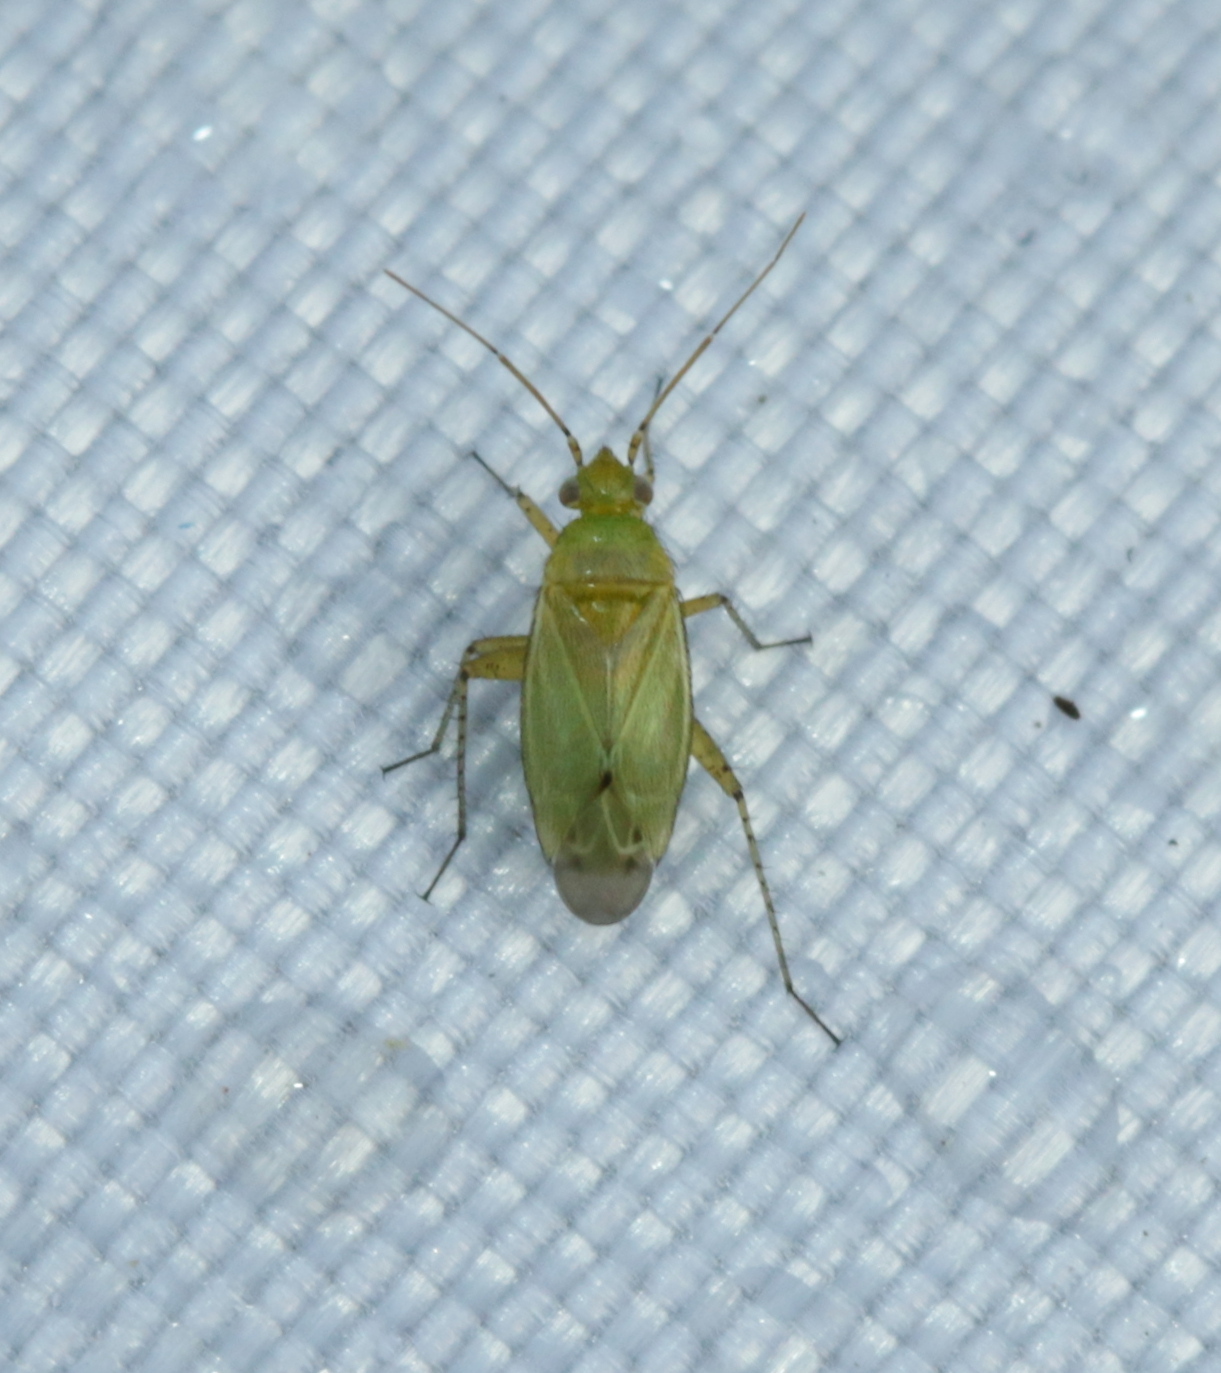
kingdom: Animalia
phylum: Arthropoda
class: Insecta
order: Hemiptera
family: Miridae
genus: Plagiognathus
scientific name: Plagiognathus chrysanthemi
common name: Plant bug
